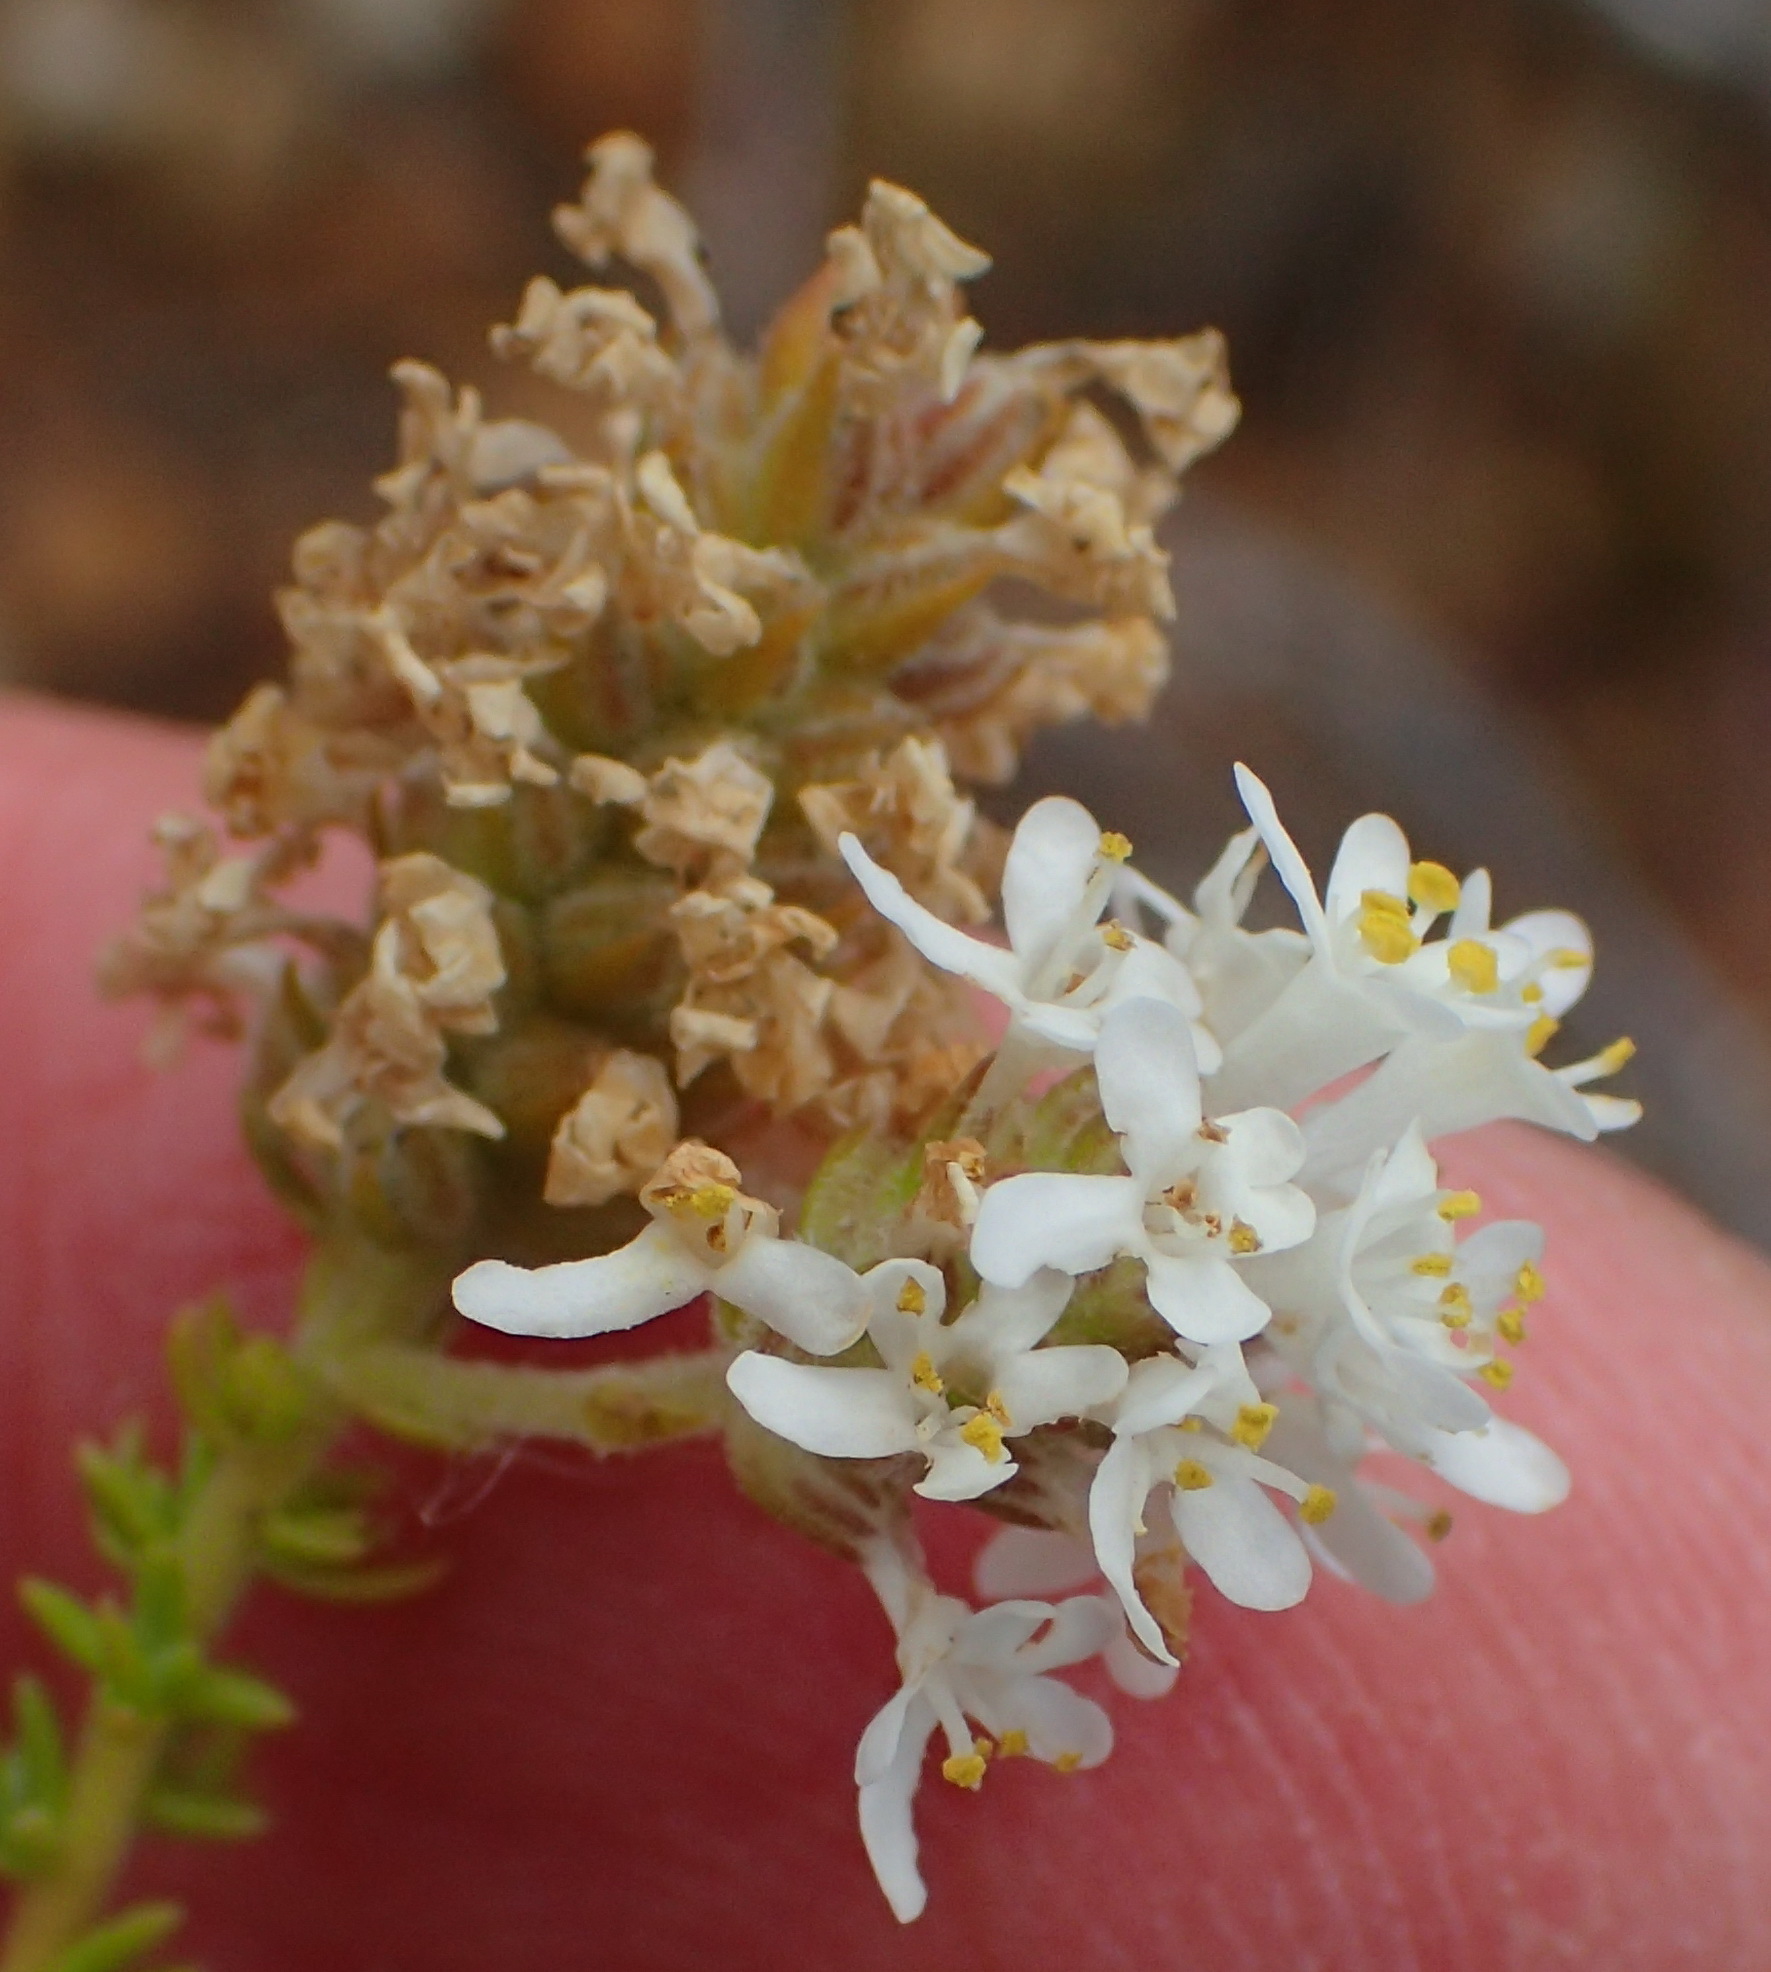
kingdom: Plantae
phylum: Tracheophyta
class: Magnoliopsida
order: Lamiales
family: Scrophulariaceae
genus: Selago
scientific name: Selago myriophylla
